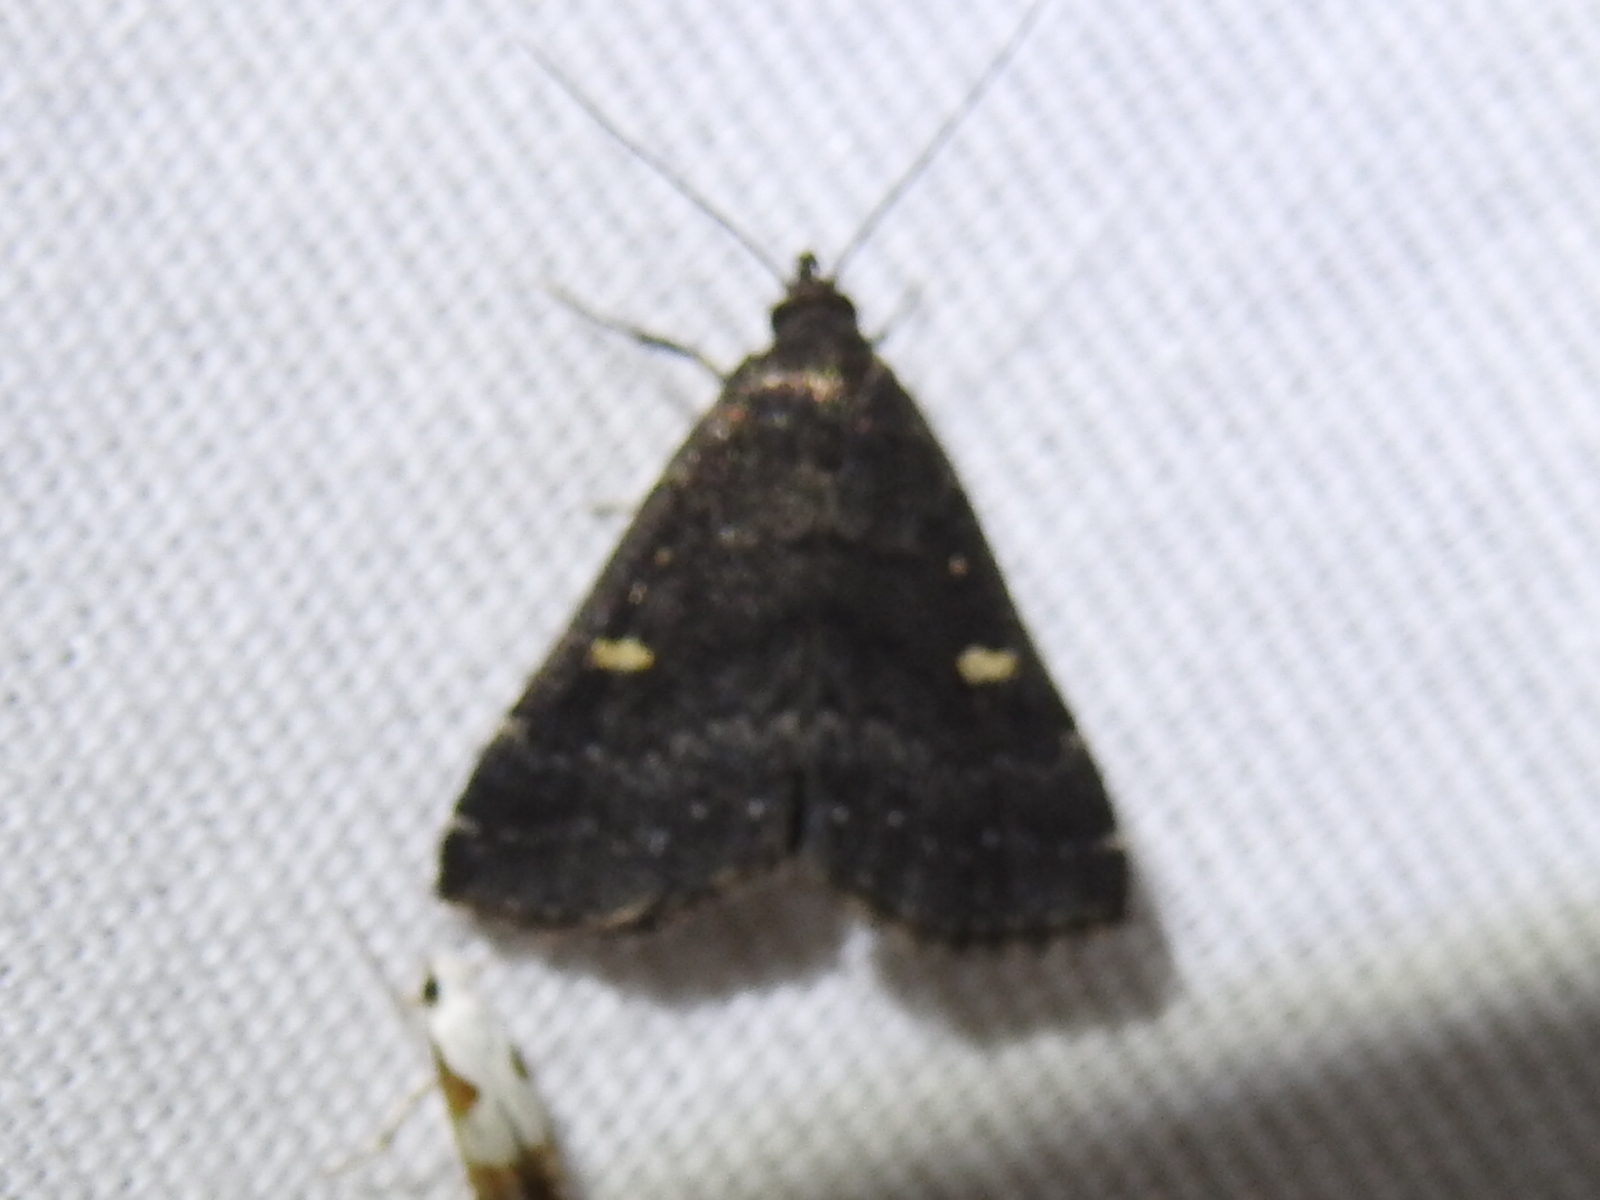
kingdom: Animalia
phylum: Arthropoda
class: Insecta
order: Lepidoptera
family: Erebidae
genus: Tetanolita
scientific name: Tetanolita mynesalis
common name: Smoky tetanolita moth
